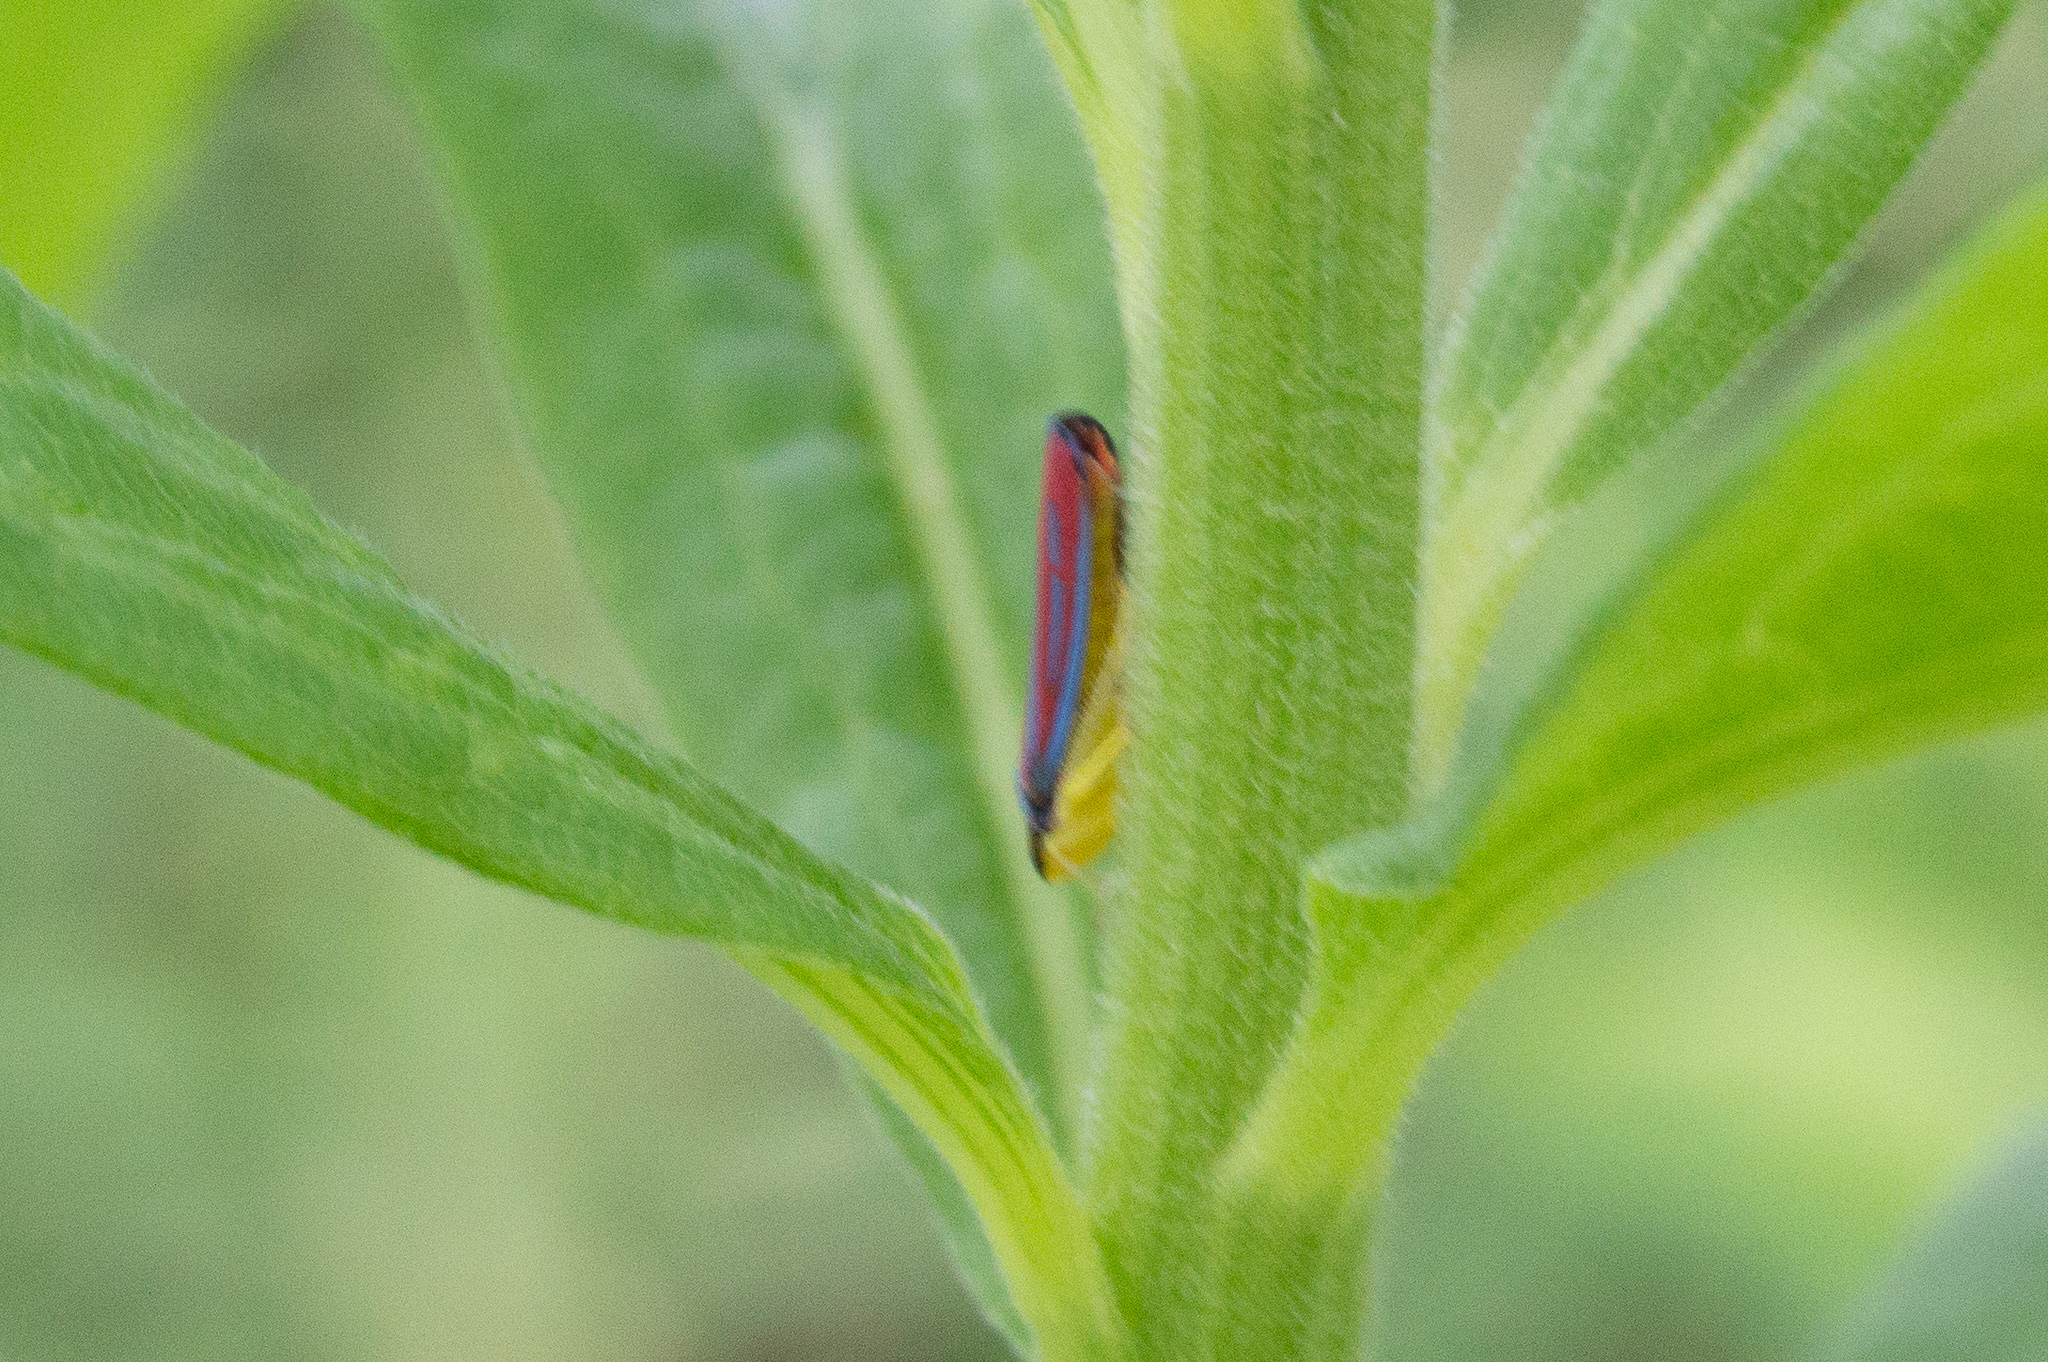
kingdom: Animalia
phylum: Arthropoda
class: Insecta
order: Hemiptera
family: Cicadellidae
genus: Graphocephala
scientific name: Graphocephala coccinea
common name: Candy-striped leafhopper
